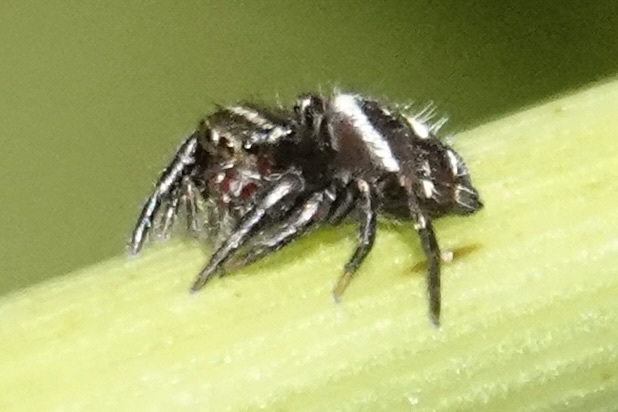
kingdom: Animalia
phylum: Arthropoda
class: Arachnida
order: Araneae
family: Salticidae
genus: Phidippus
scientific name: Phidippus audax
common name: Bold jumper
